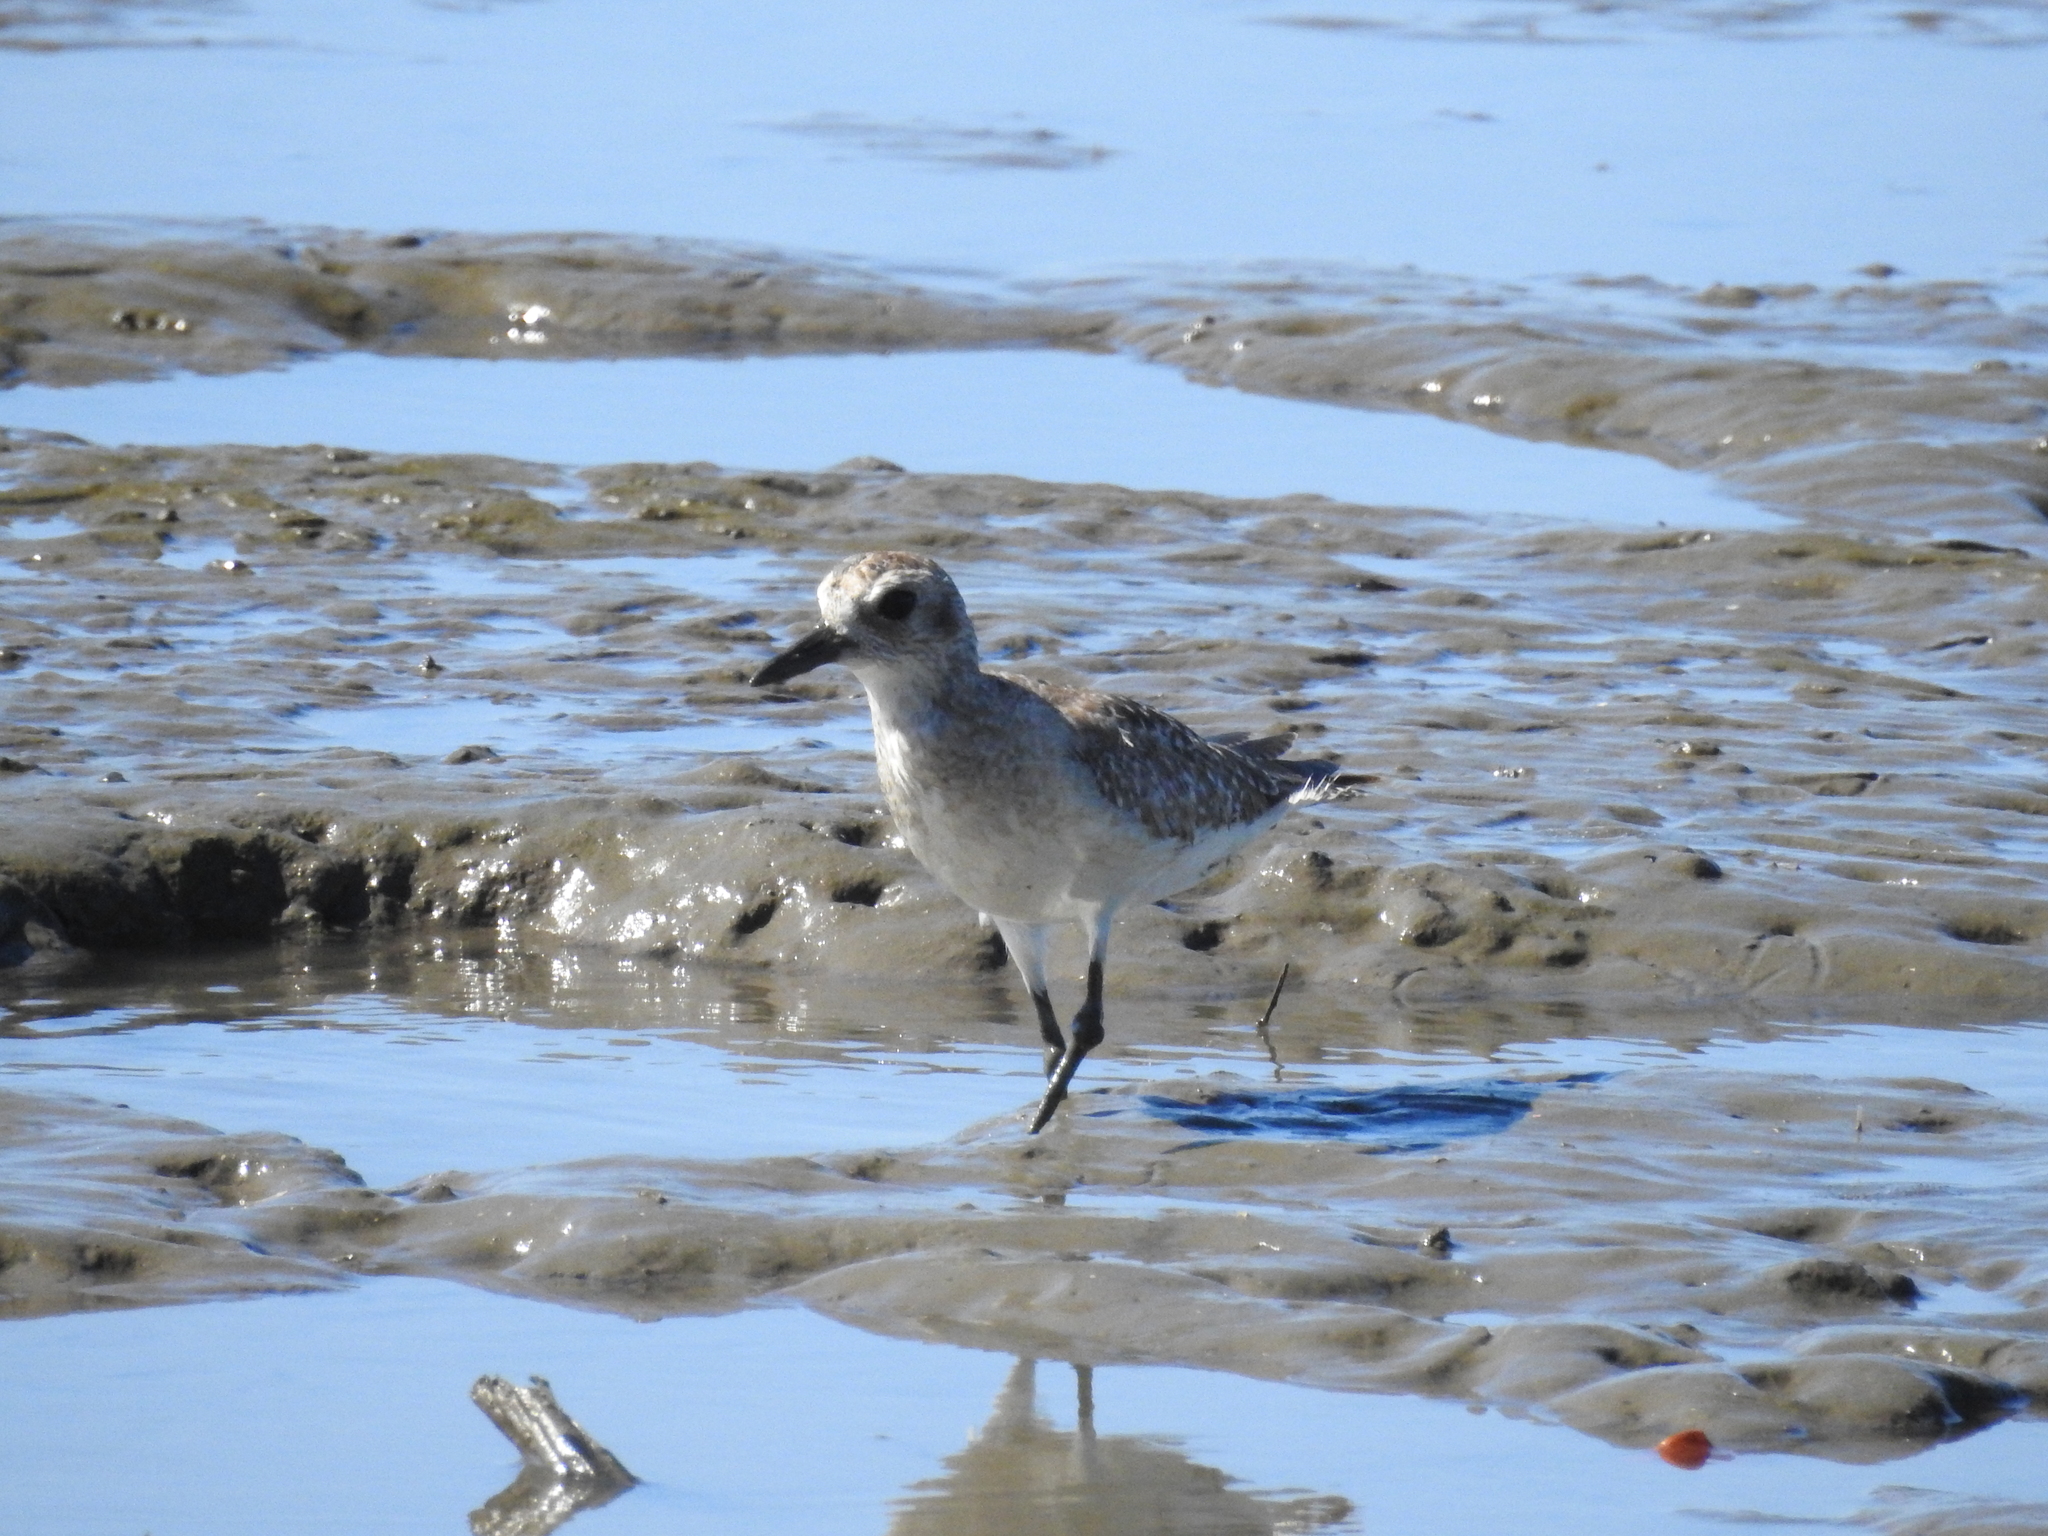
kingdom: Animalia
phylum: Chordata
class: Aves
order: Charadriiformes
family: Charadriidae
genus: Pluvialis
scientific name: Pluvialis squatarola
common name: Grey plover
